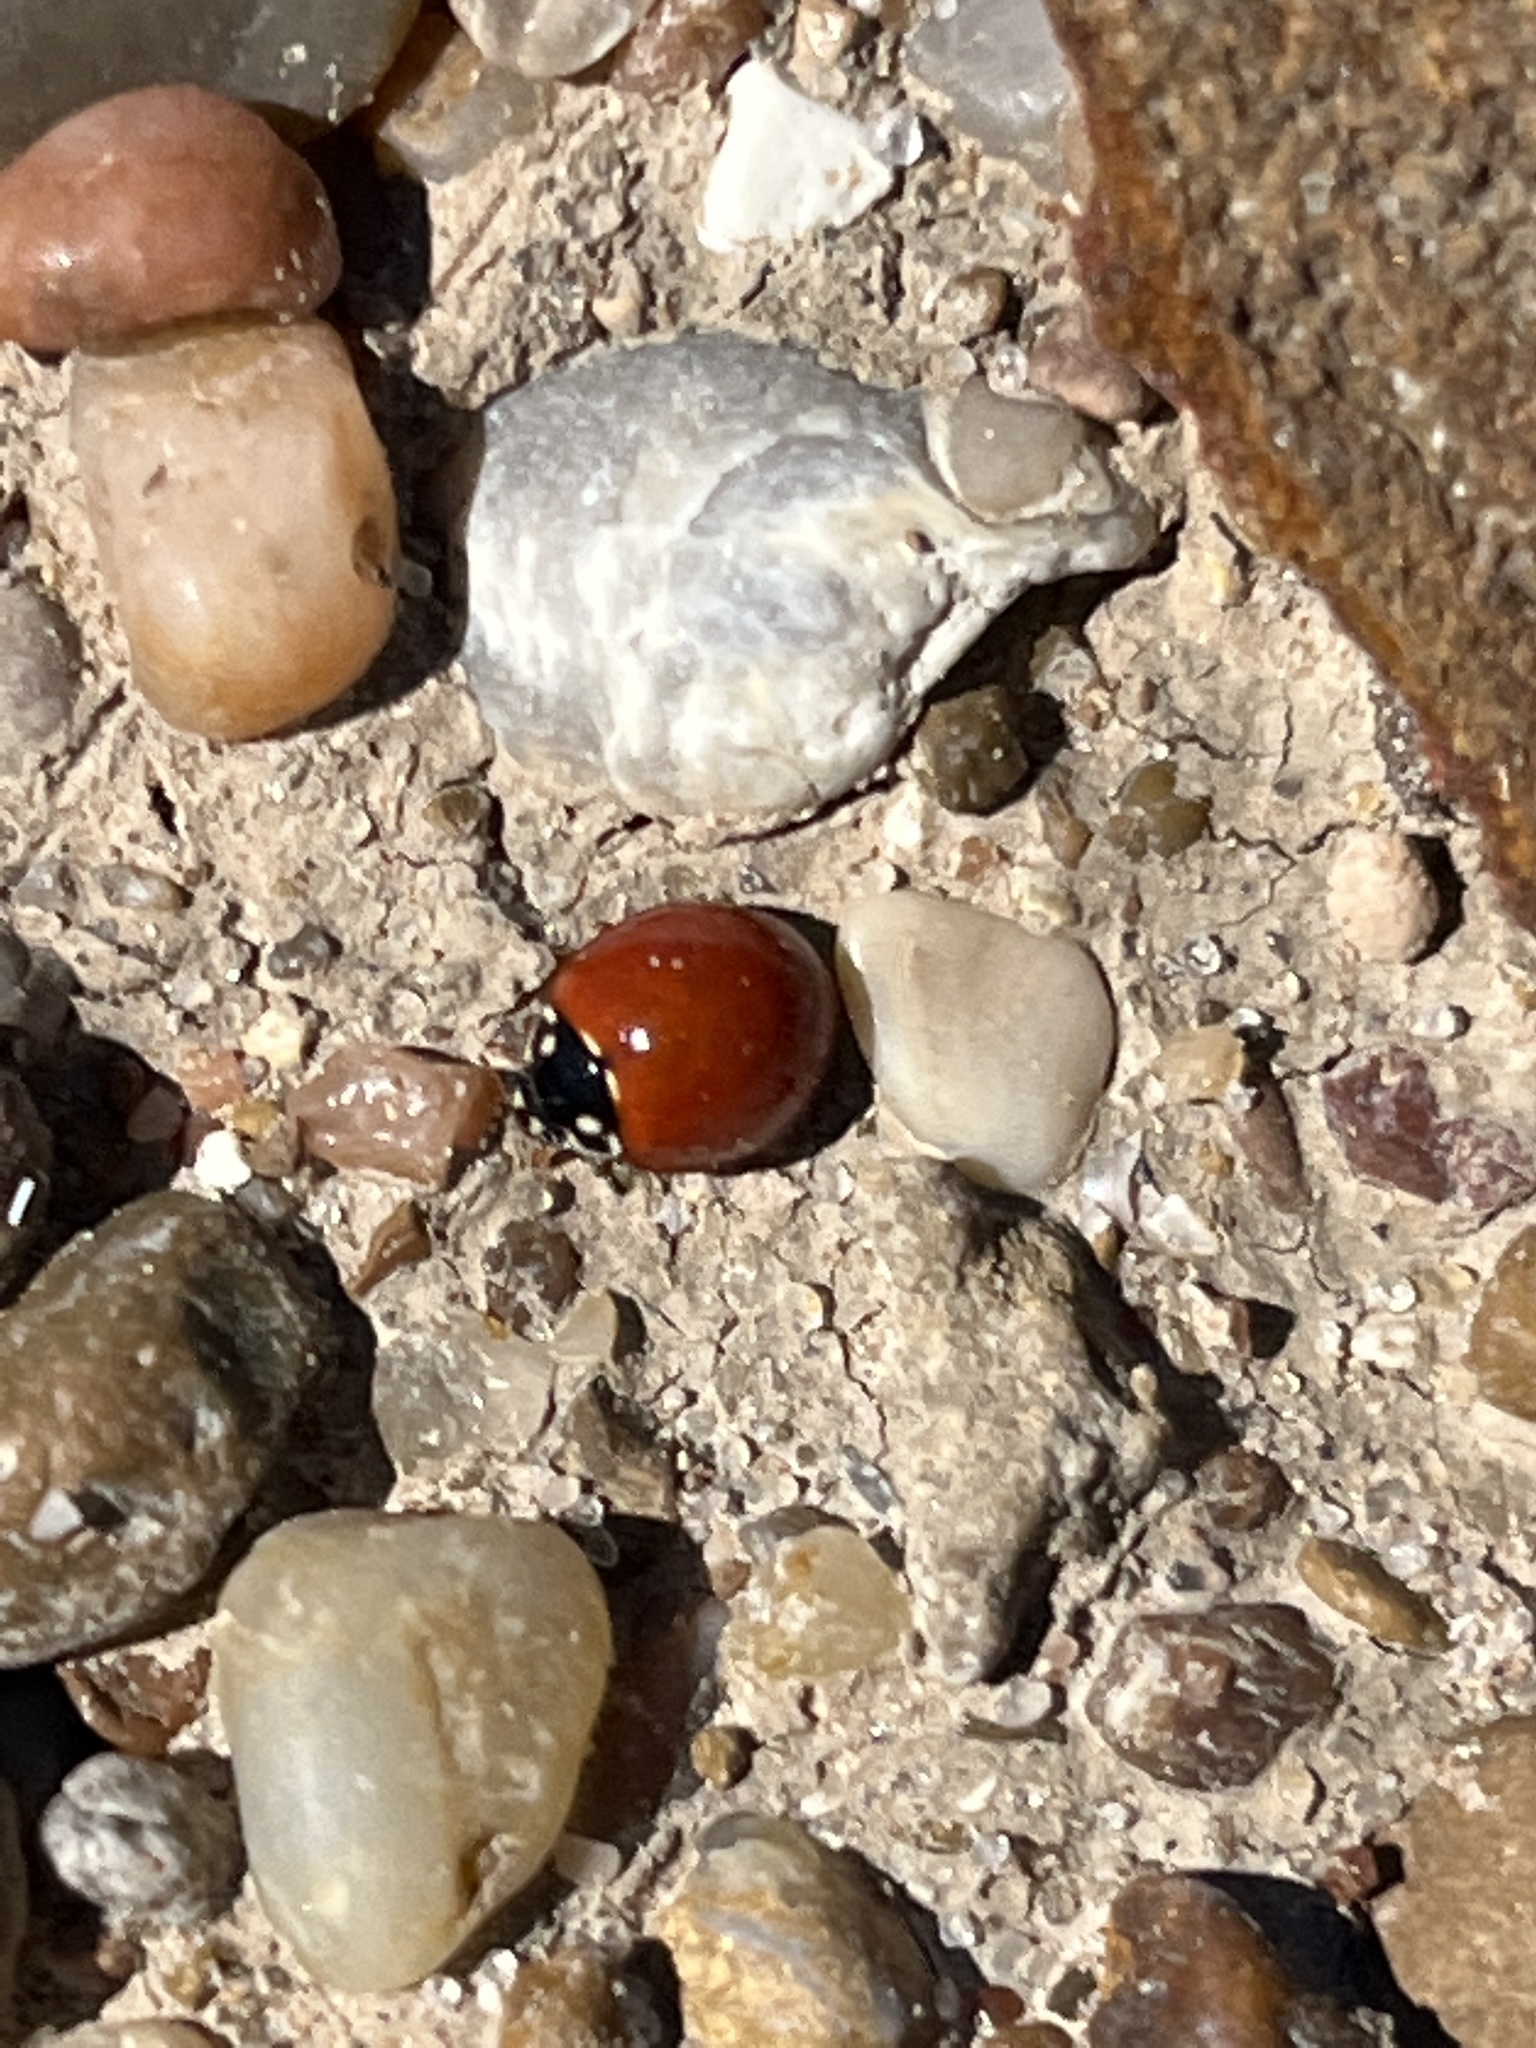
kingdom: Animalia
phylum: Arthropoda
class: Insecta
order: Coleoptera
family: Coccinellidae
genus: Cycloneda
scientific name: Cycloneda sanguinea
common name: Ladybird beetle
